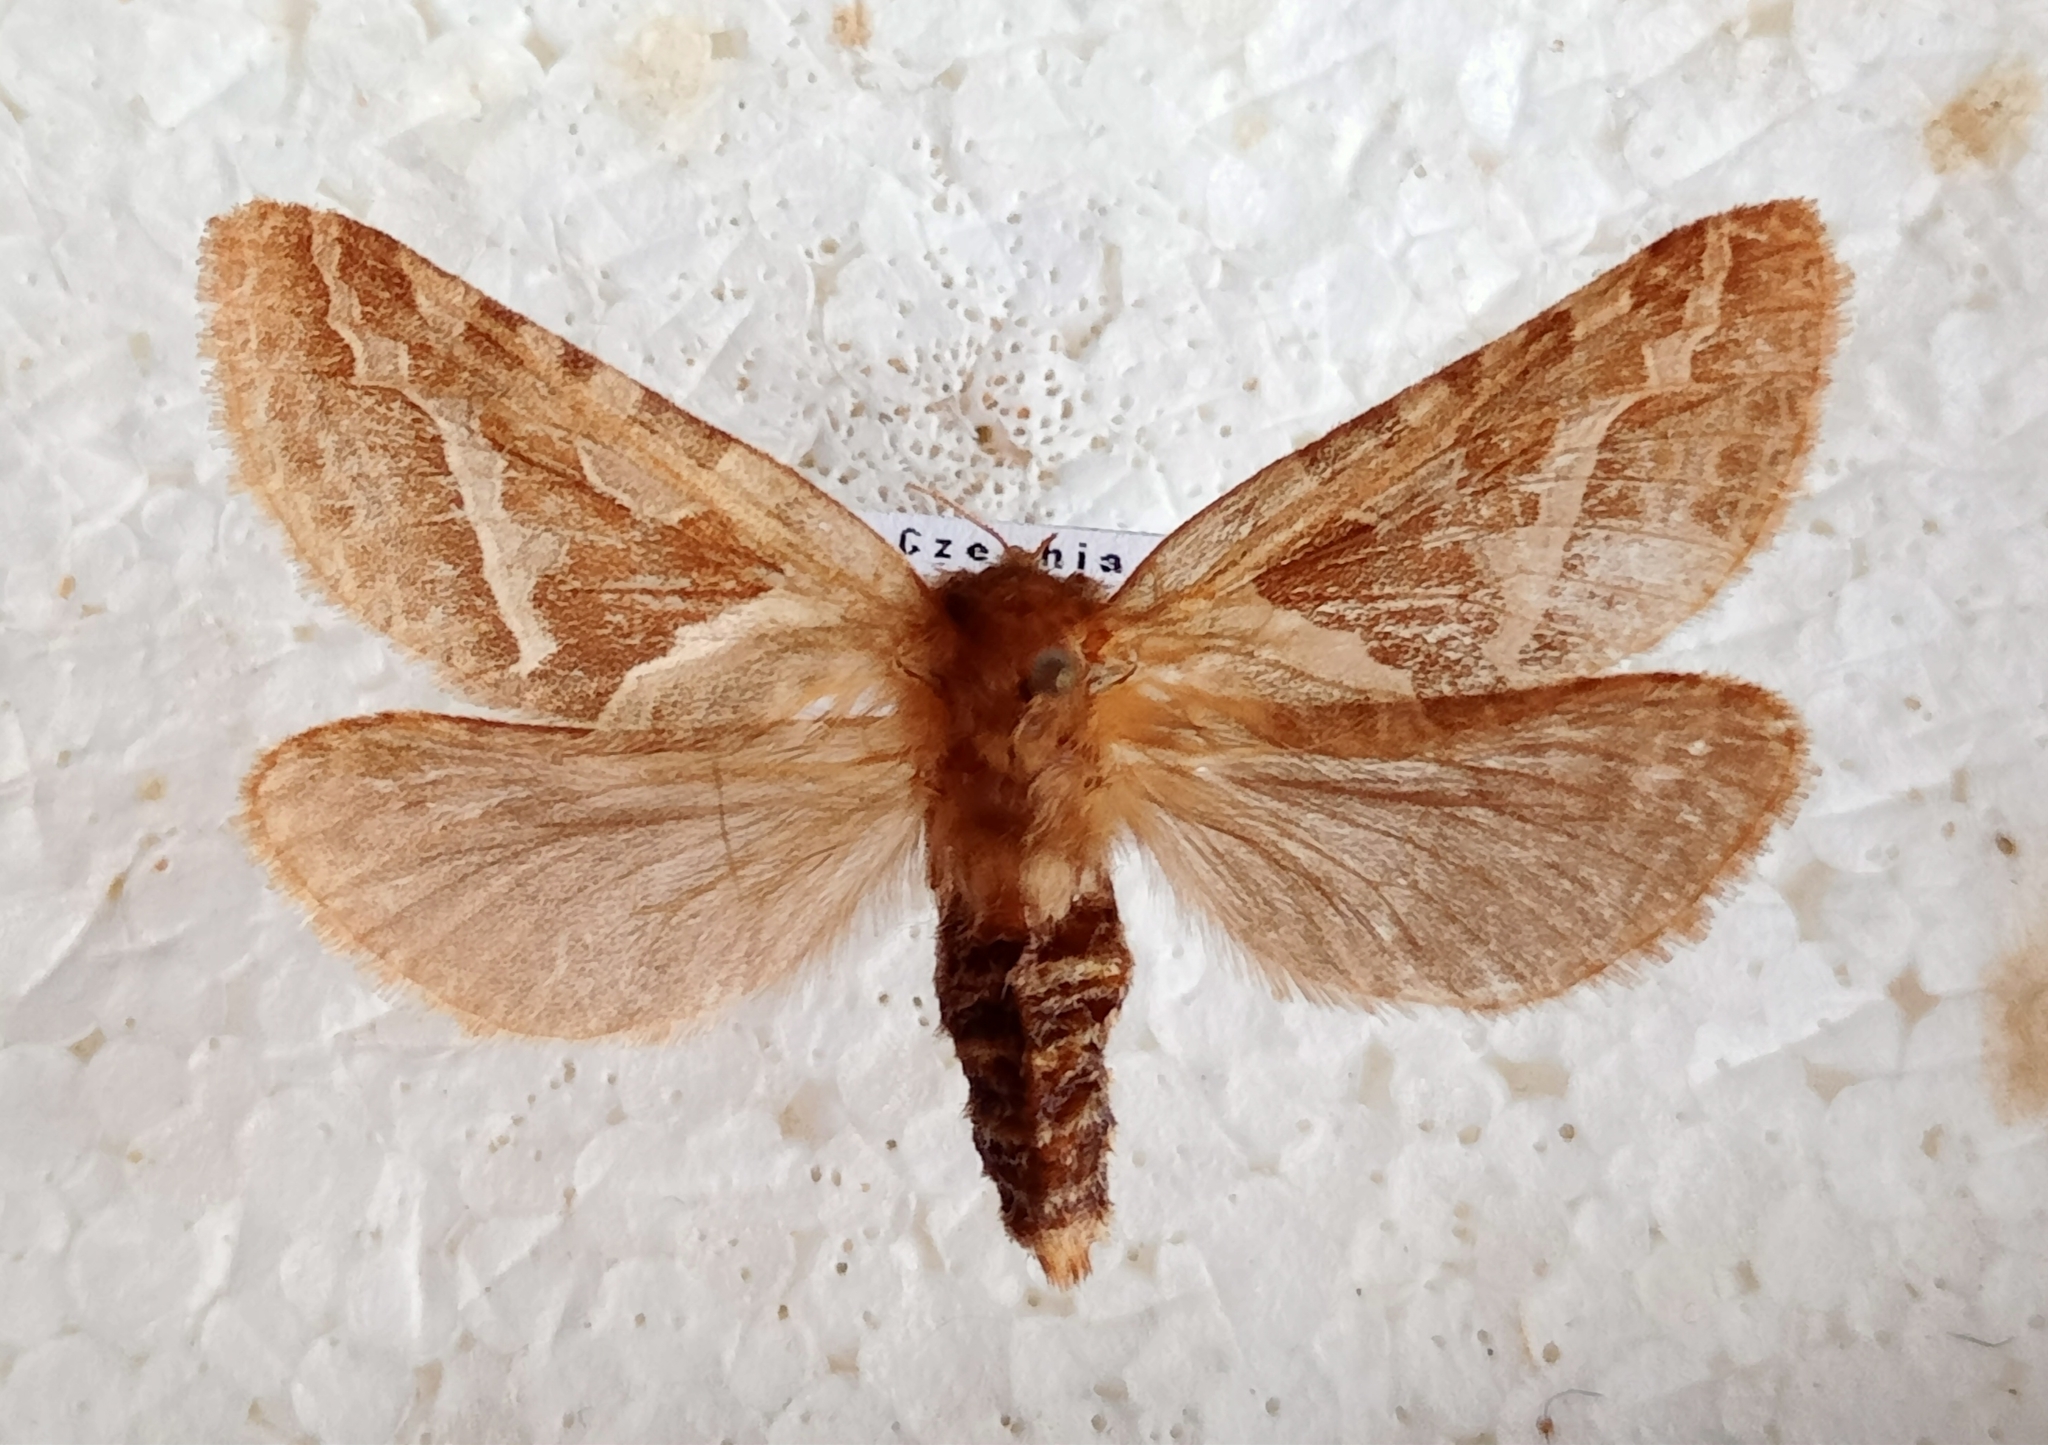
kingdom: Animalia
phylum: Arthropoda
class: Insecta
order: Lepidoptera
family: Hepialidae
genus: Triodia
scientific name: Triodia sylvina
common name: Orange swift
